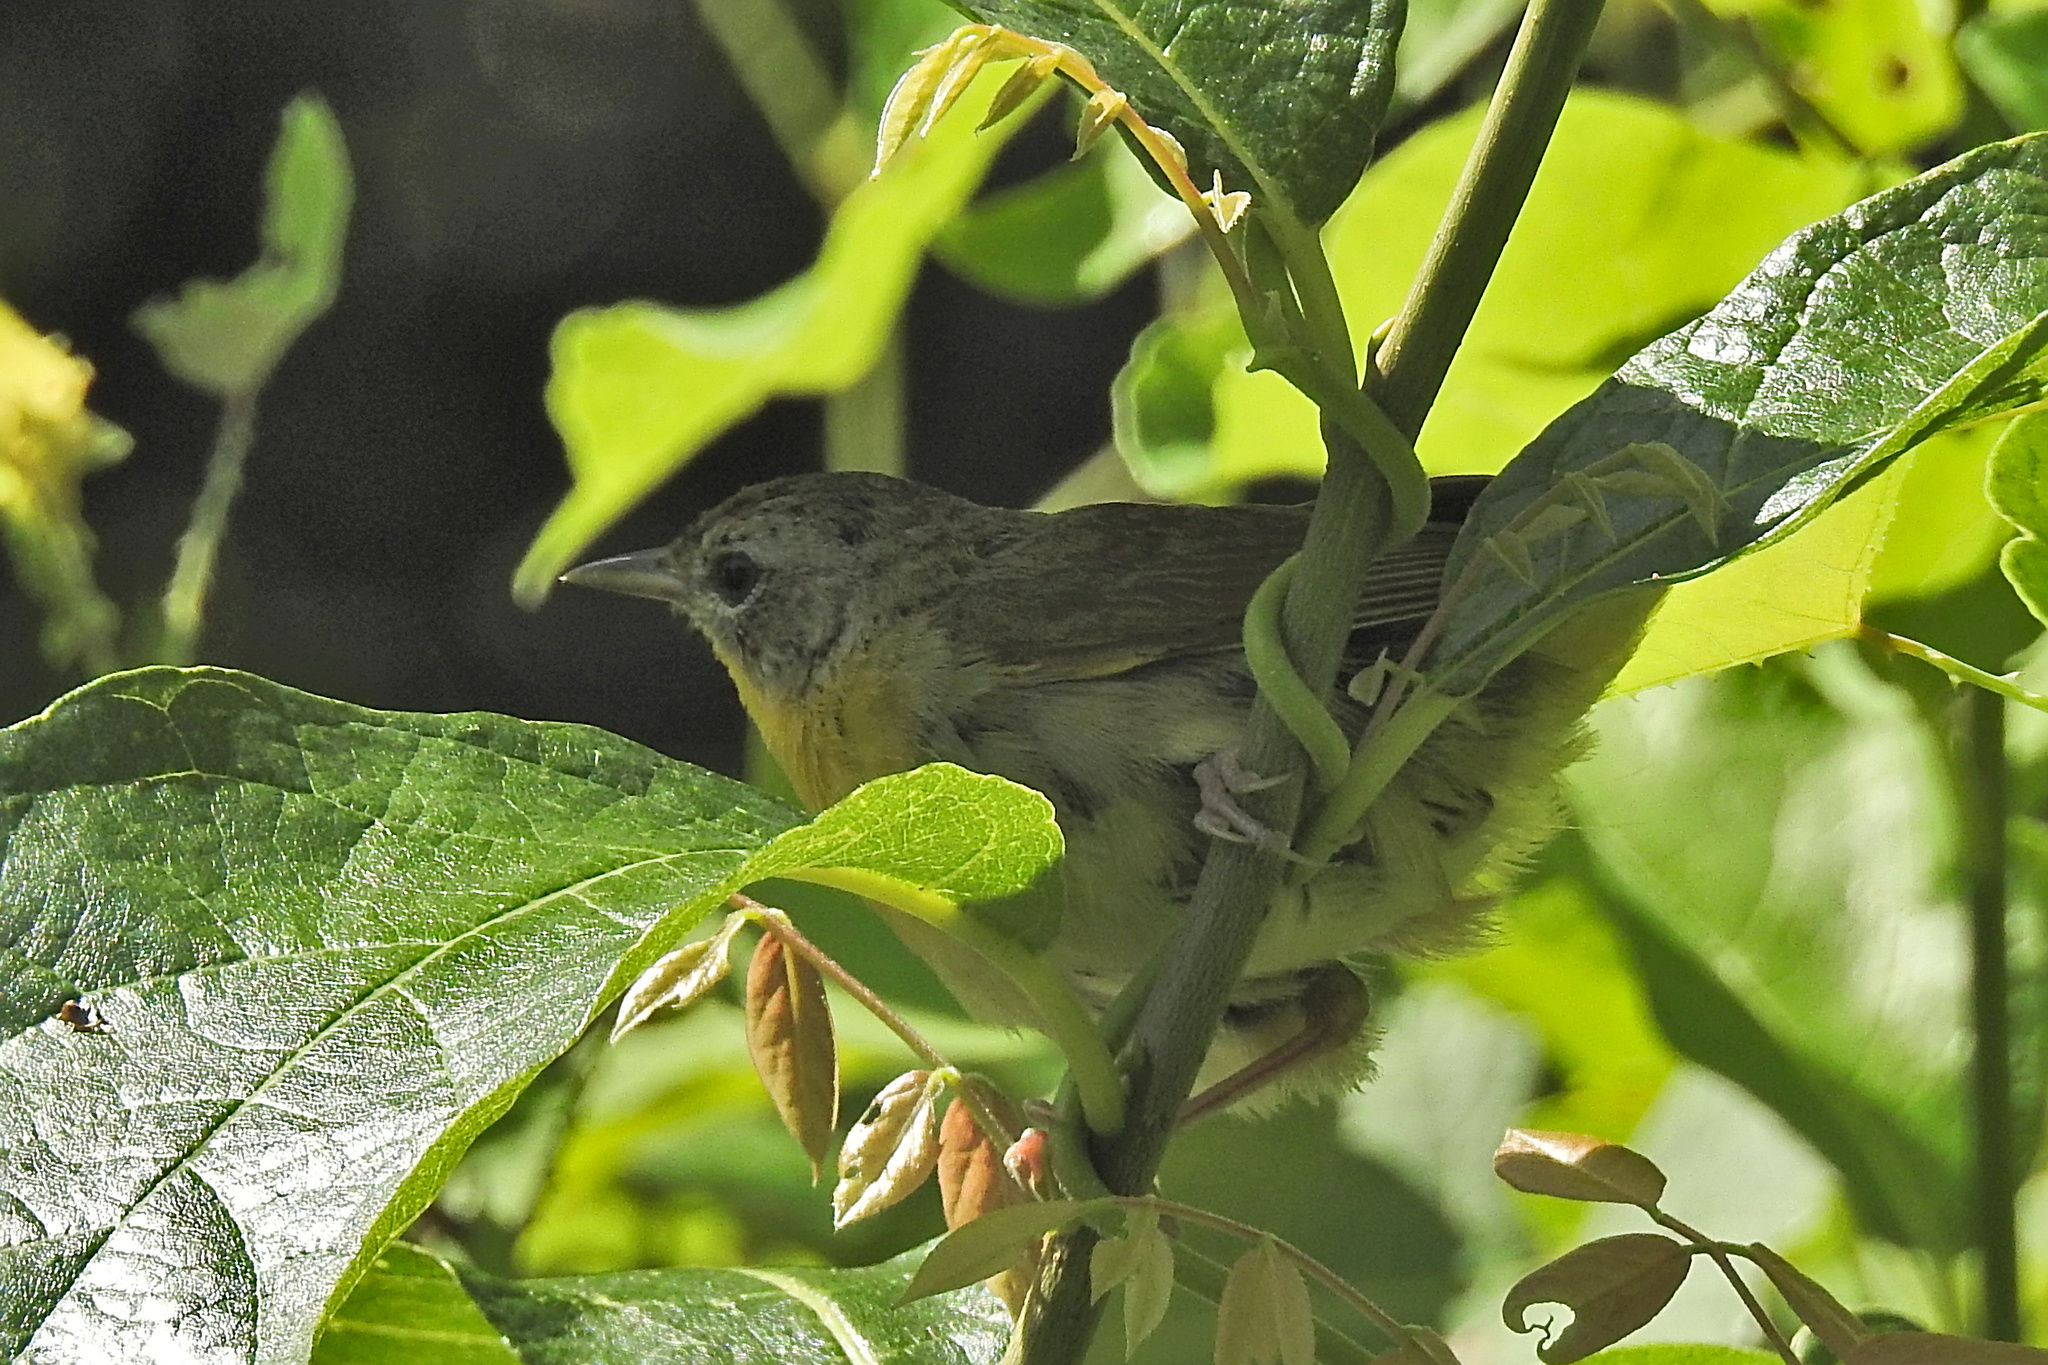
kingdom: Animalia
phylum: Chordata
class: Aves
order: Passeriformes
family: Parulidae
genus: Geothlypis
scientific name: Geothlypis trichas
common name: Common yellowthroat
